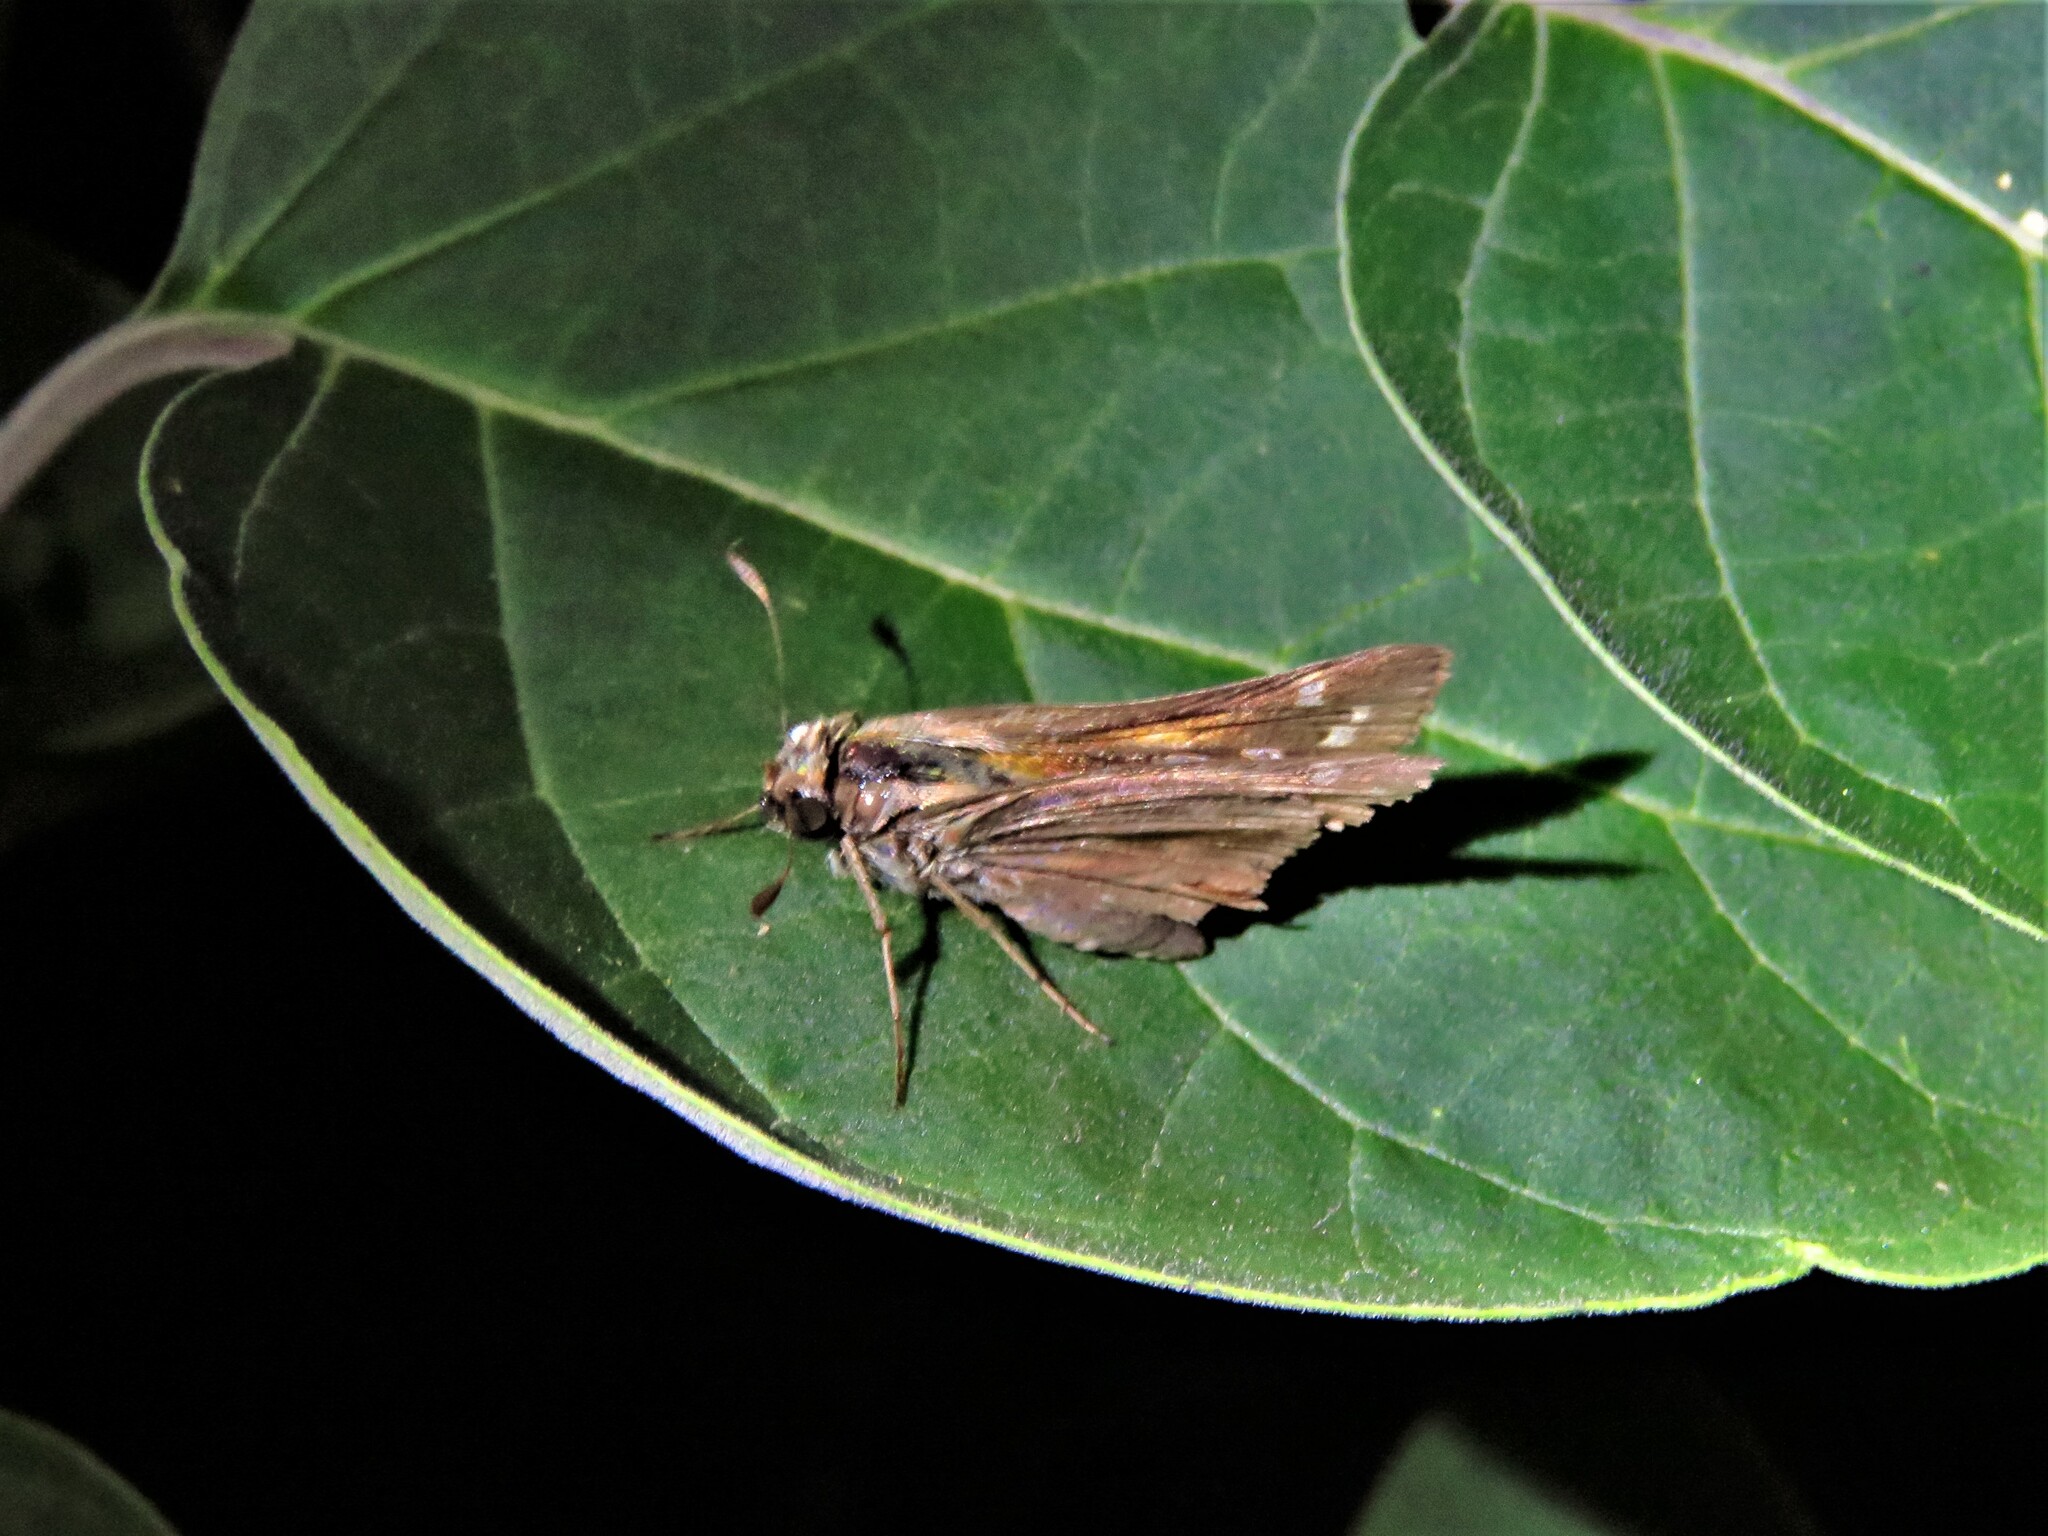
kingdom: Animalia
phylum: Arthropoda
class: Insecta
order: Lepidoptera
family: Hesperiidae
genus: Atalopedes
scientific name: Atalopedes
